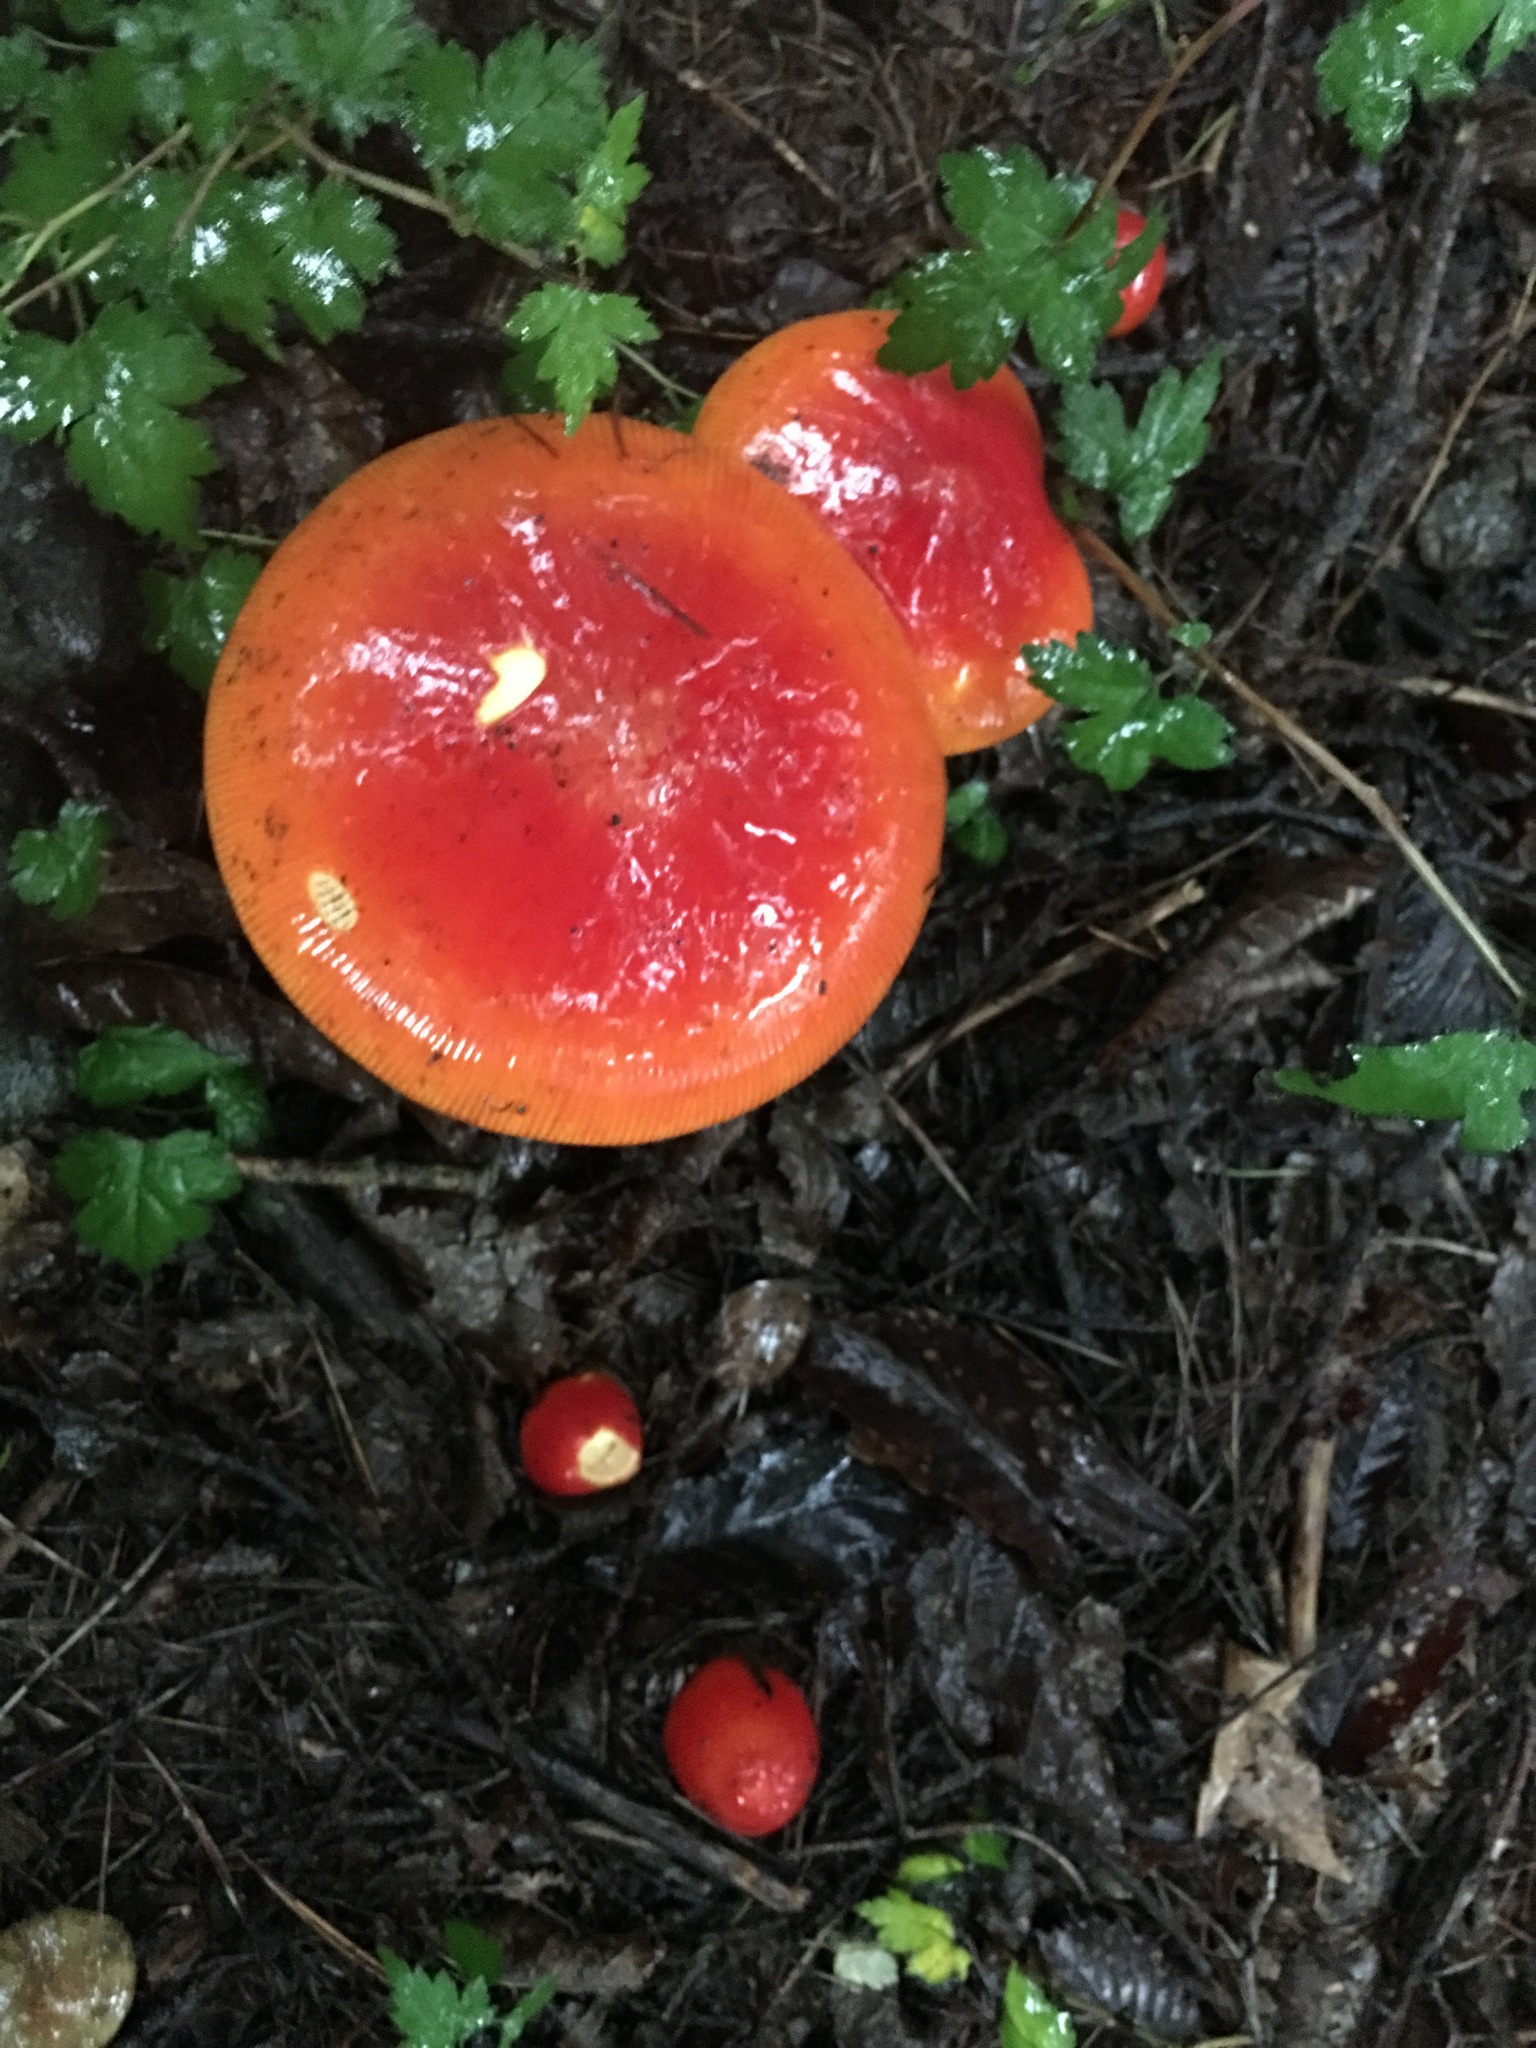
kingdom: Fungi
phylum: Basidiomycota
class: Agaricomycetes
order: Agaricales
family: Amanitaceae
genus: Amanita
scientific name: Amanita caesareoides
